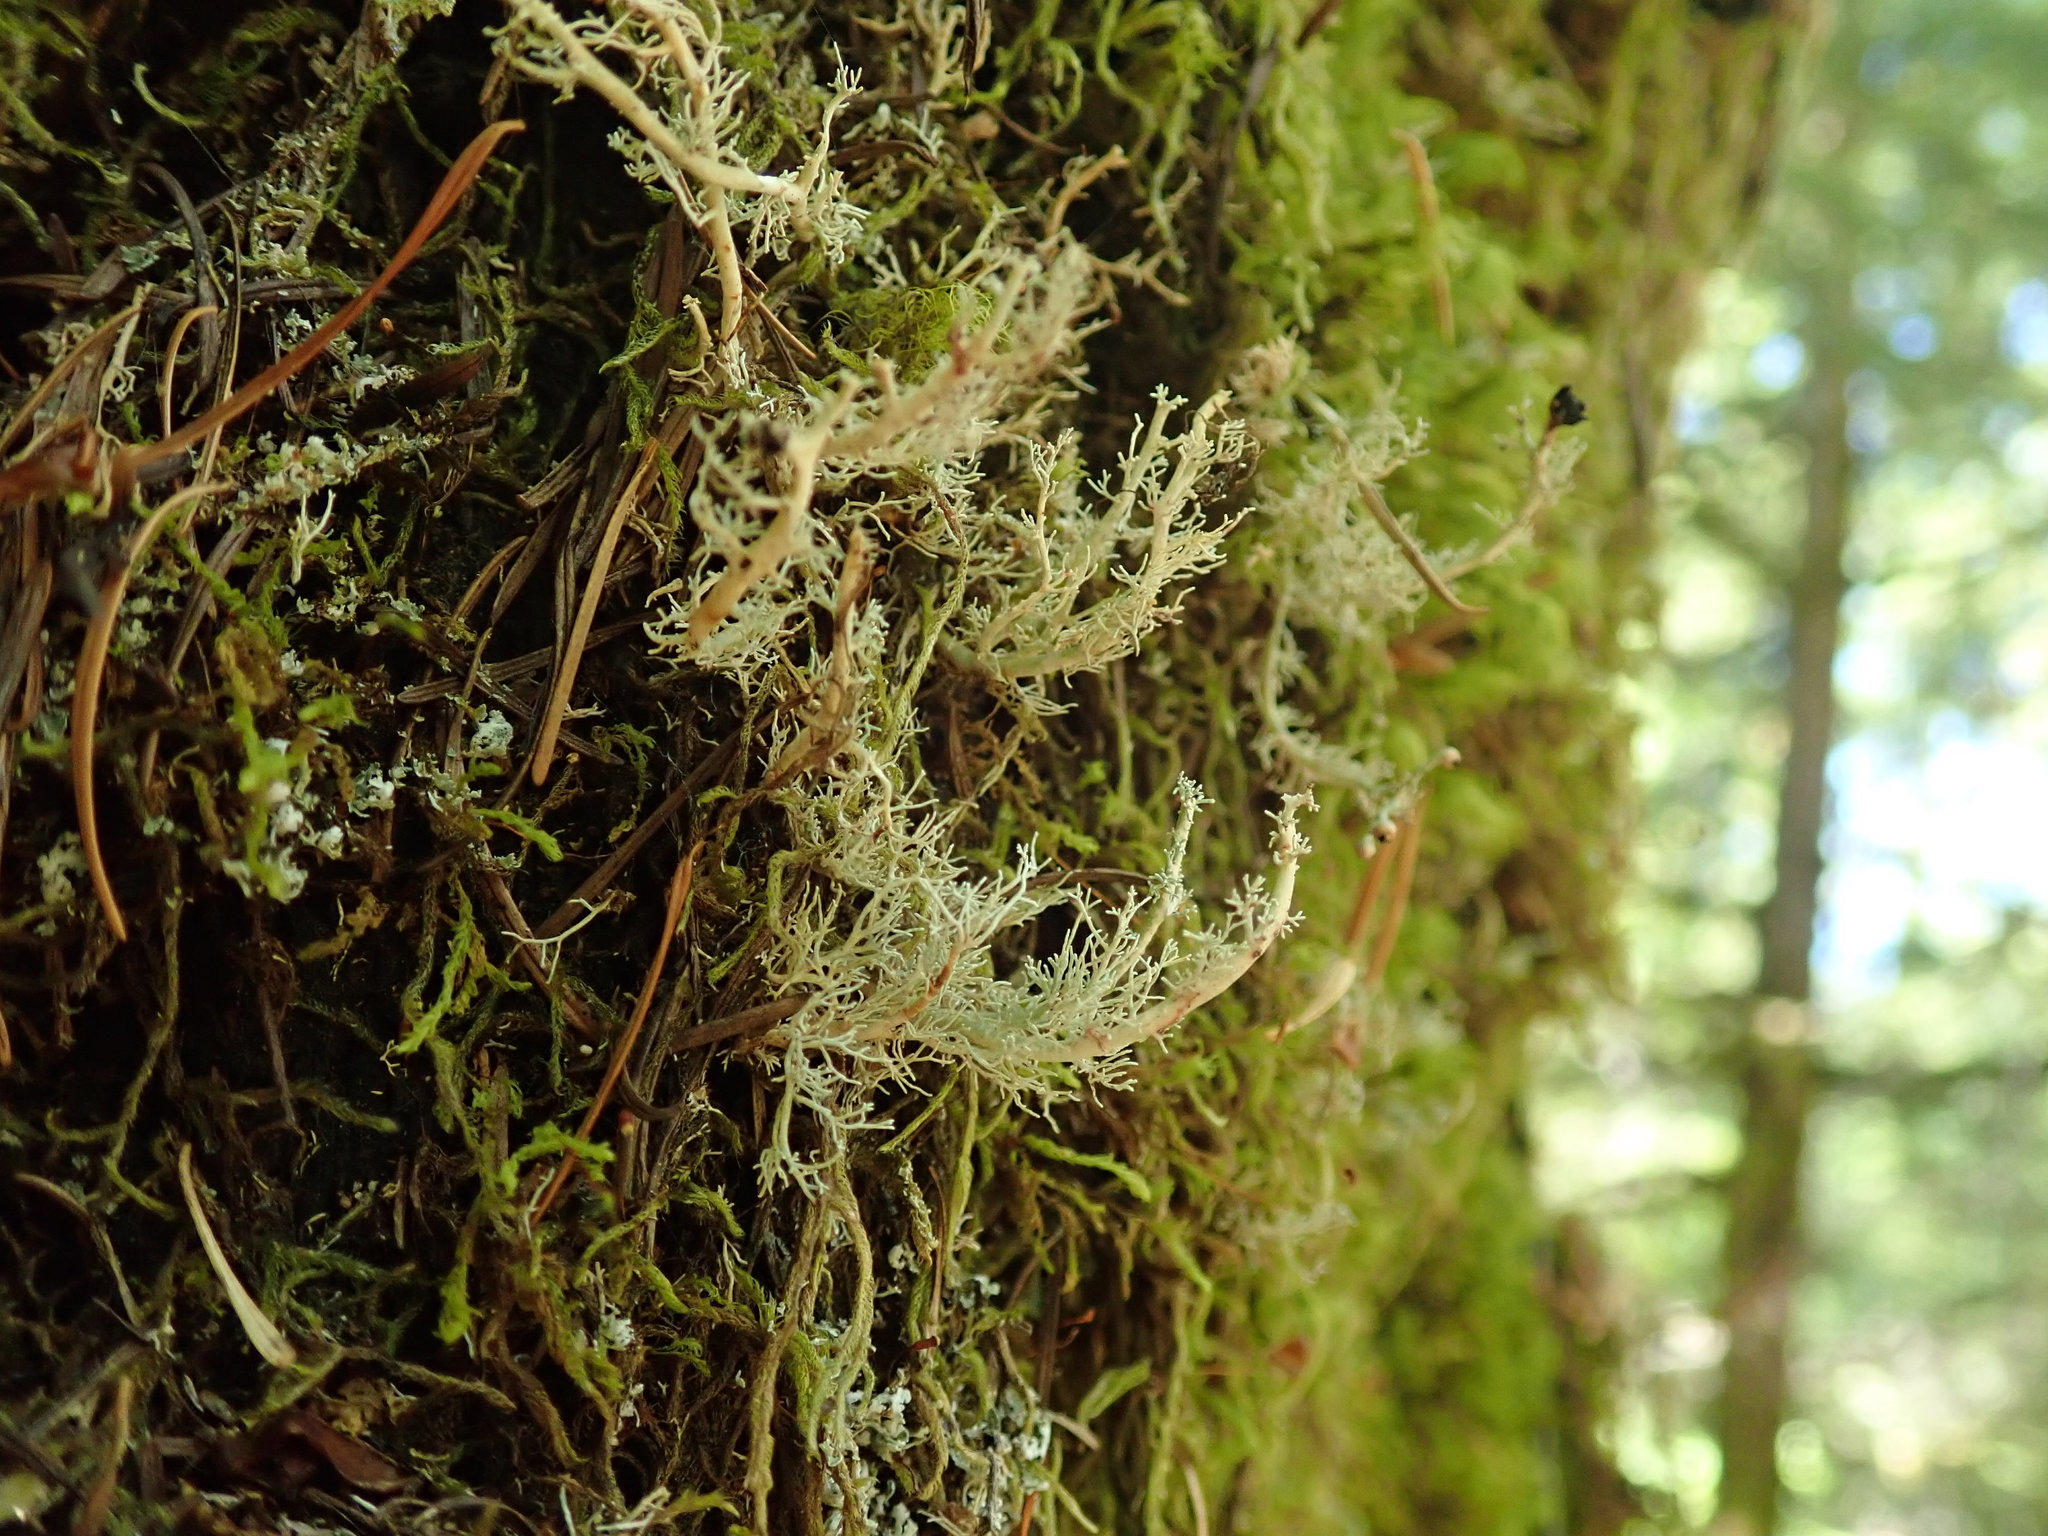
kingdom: Fungi
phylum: Ascomycota
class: Lecanoromycetes
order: Lecanorales
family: Sphaerophoraceae
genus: Sphaerophorus
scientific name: Sphaerophorus globosus
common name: Globe ball lichen
